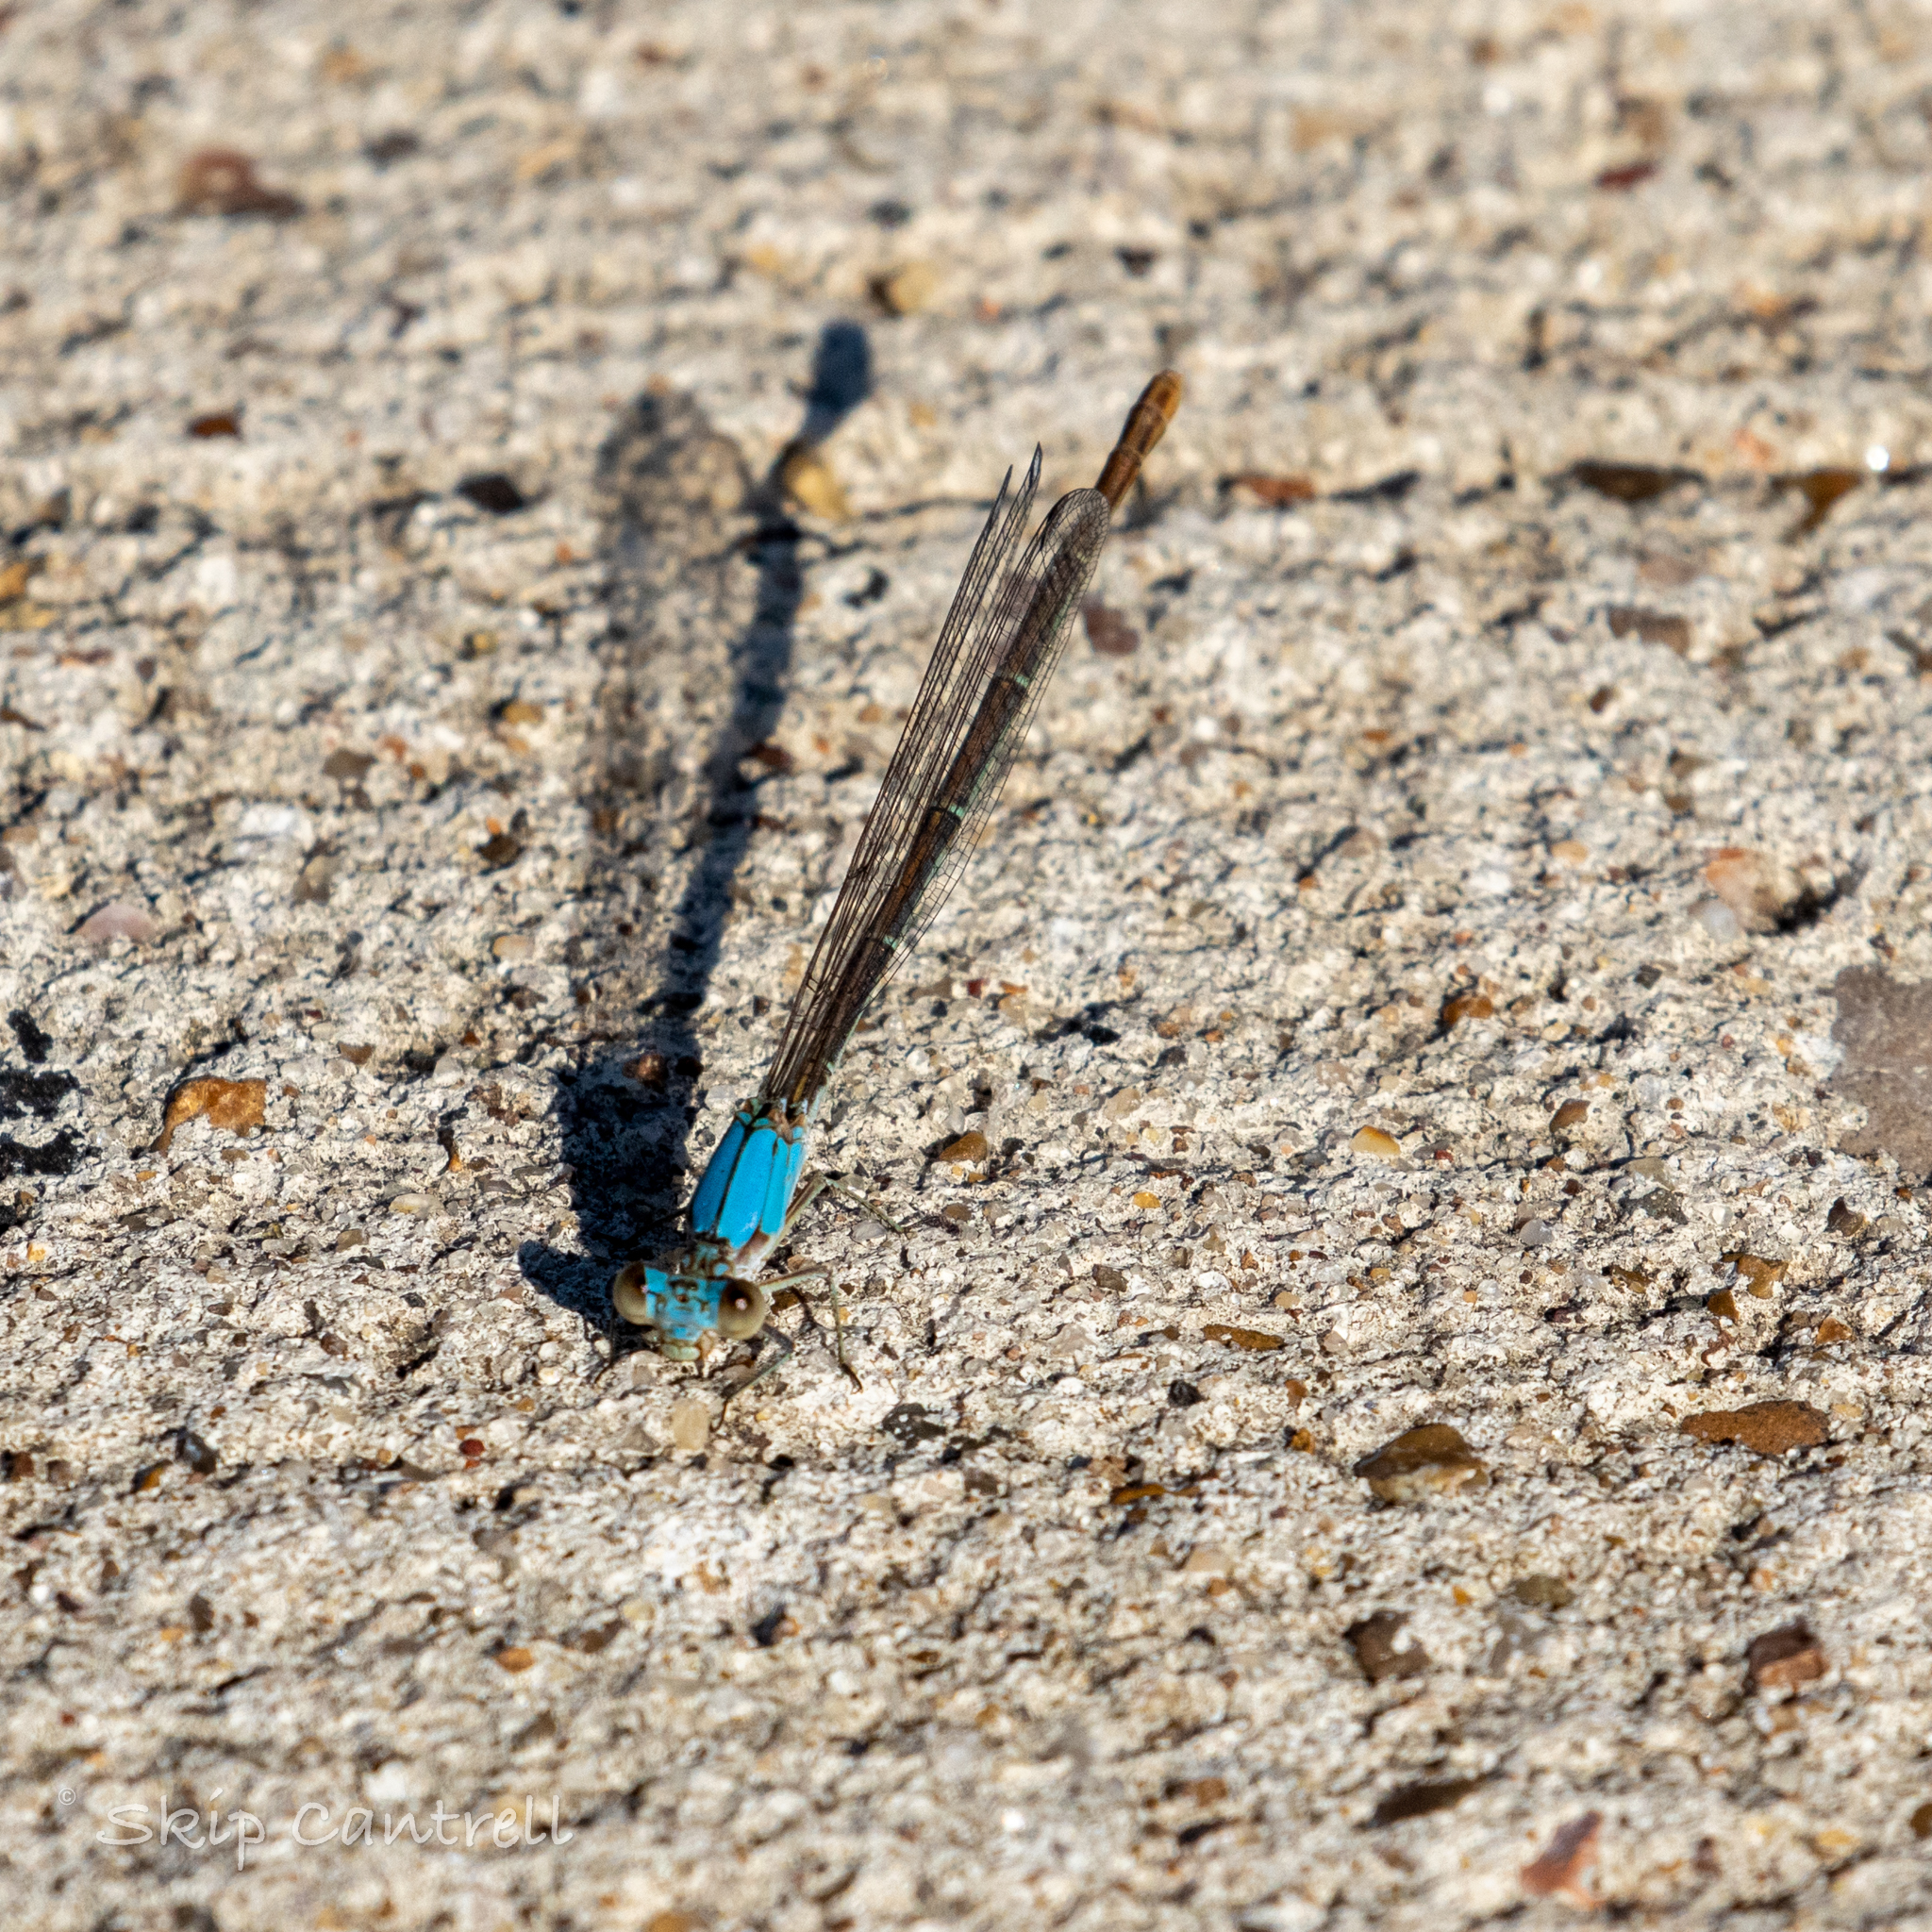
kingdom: Animalia
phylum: Arthropoda
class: Insecta
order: Odonata
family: Coenagrionidae
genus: Argia
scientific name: Argia apicalis
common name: Blue-fronted dancer
